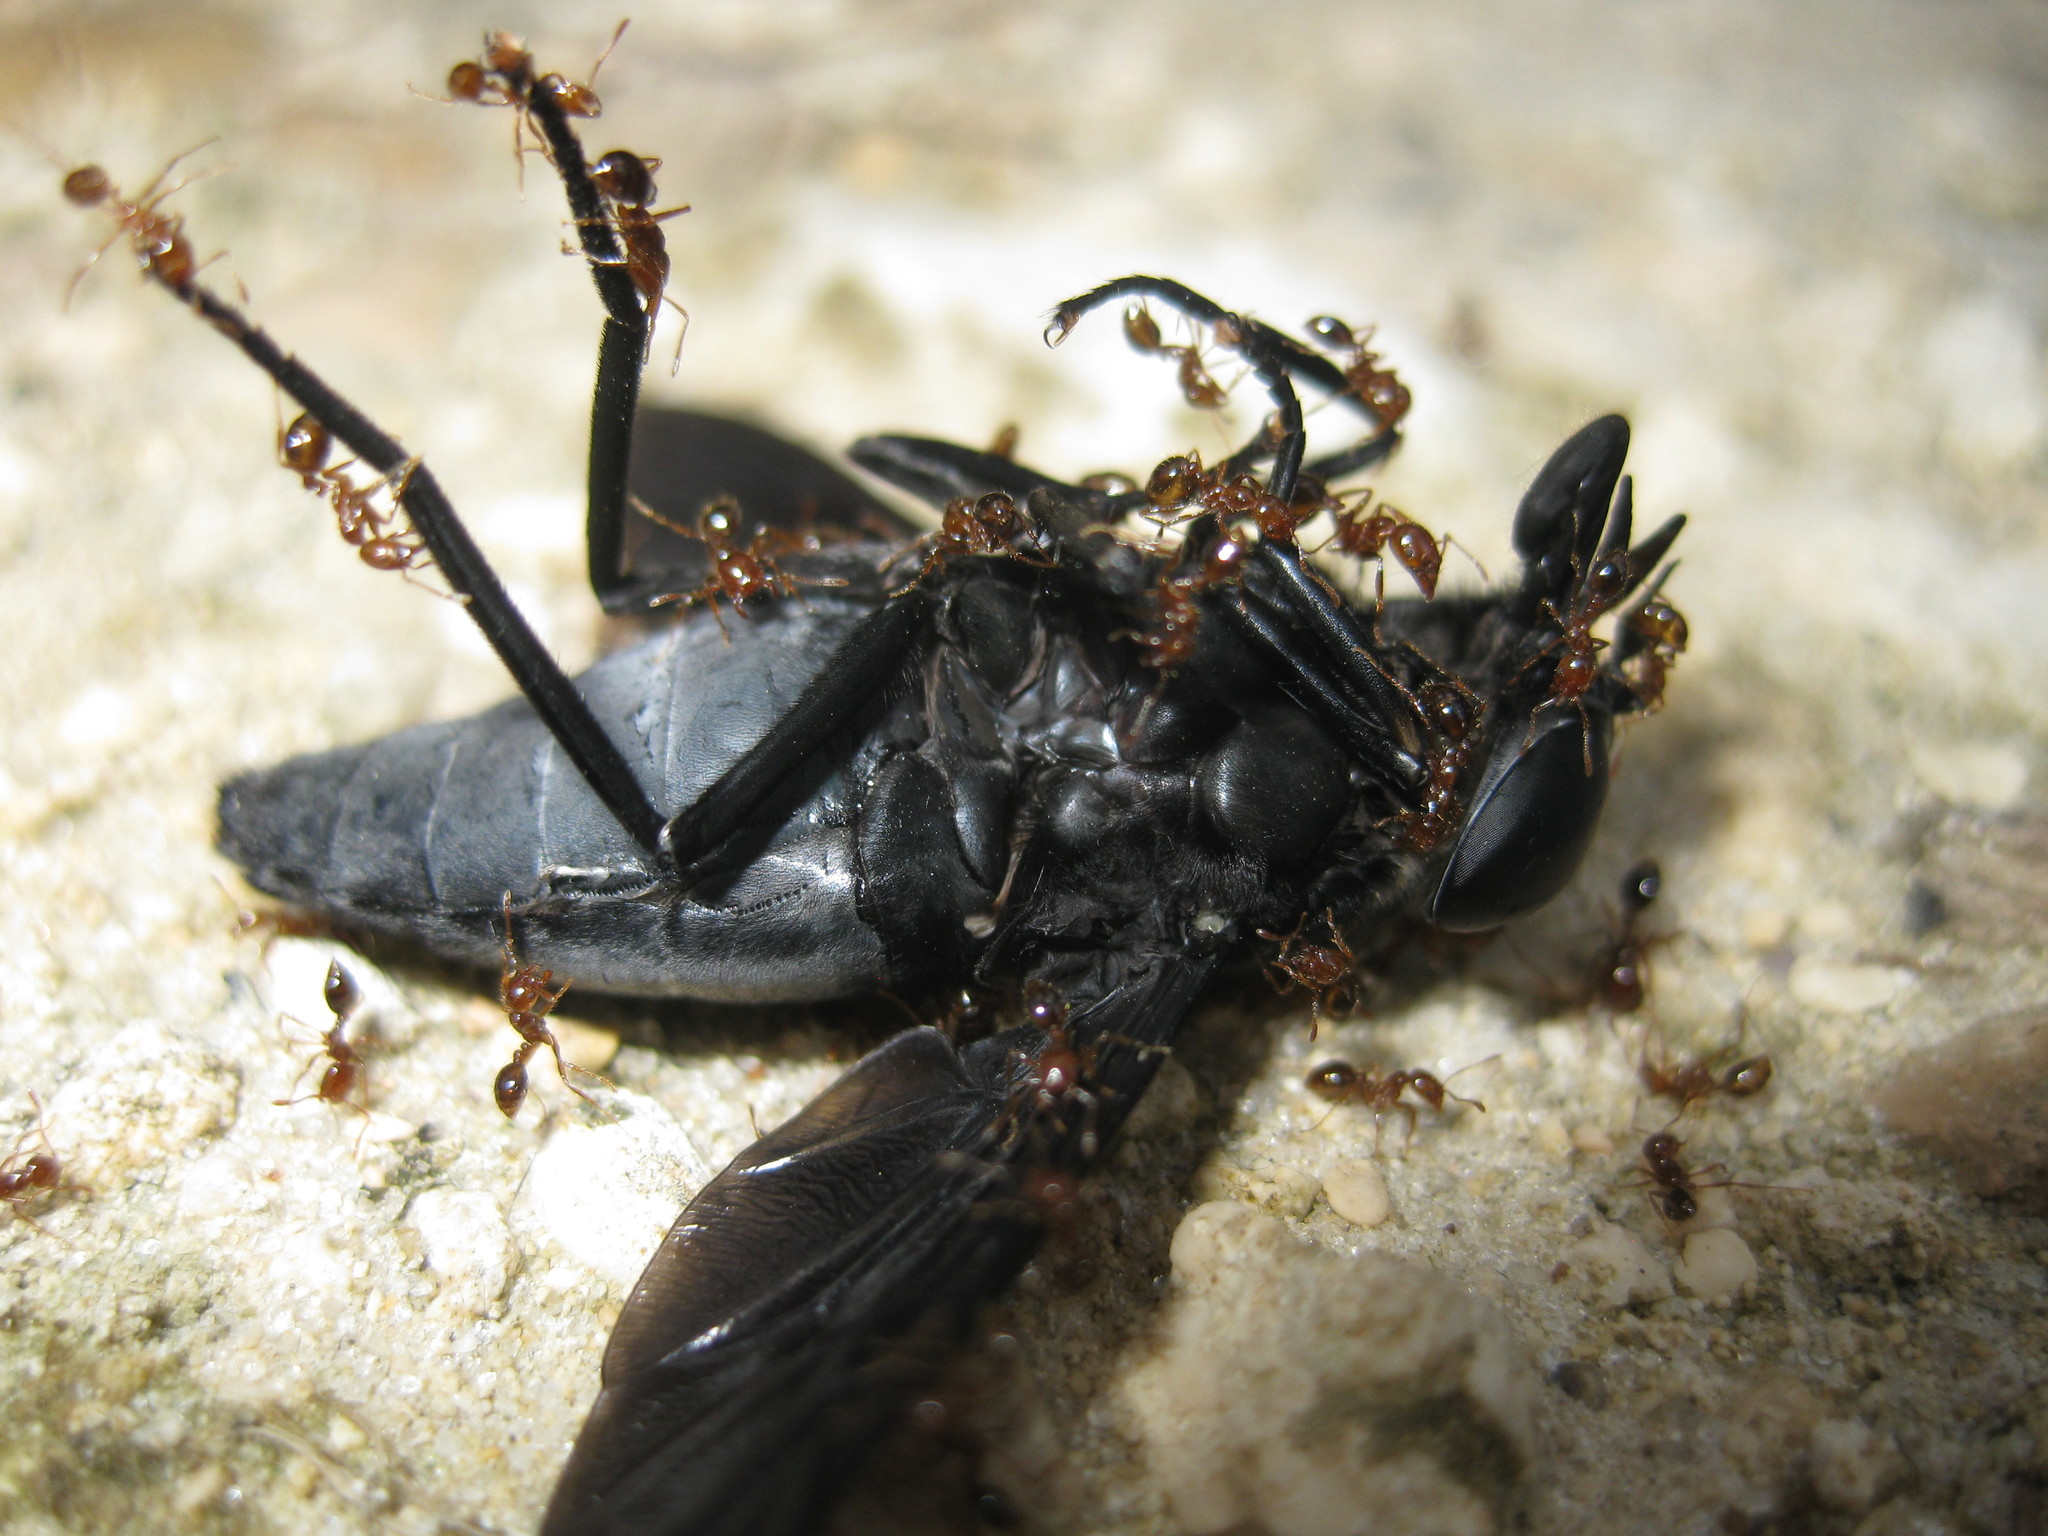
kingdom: Animalia
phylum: Arthropoda
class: Insecta
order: Diptera
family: Tabanidae
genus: Tabanus
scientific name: Tabanus atratus
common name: Black horse fly
